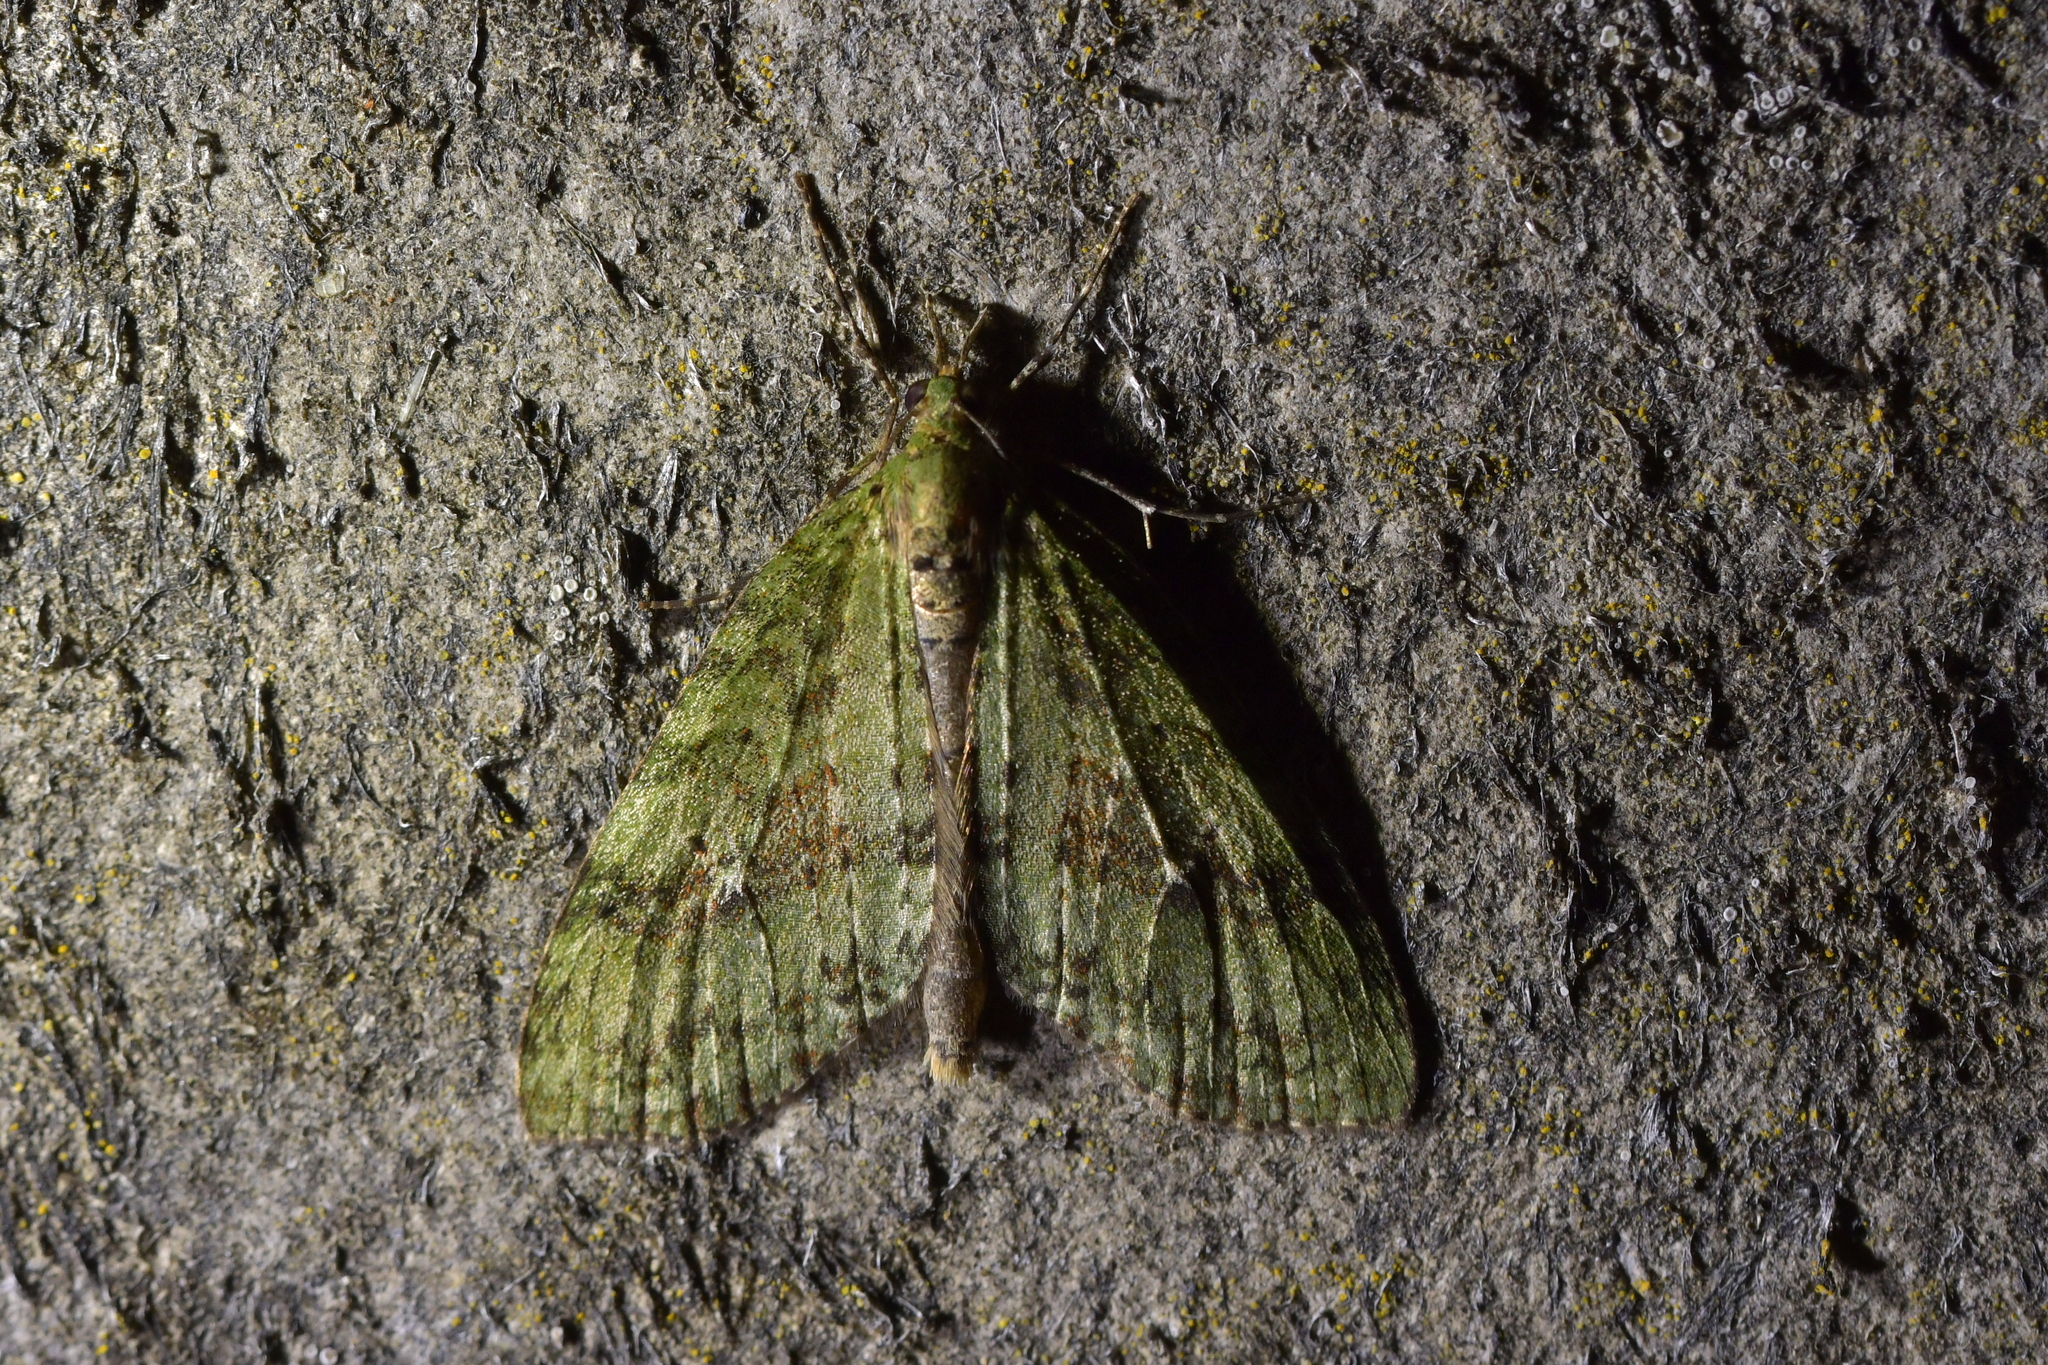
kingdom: Animalia
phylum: Arthropoda
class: Insecta
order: Lepidoptera
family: Geometridae
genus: Tatosoma
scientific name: Tatosoma transitaria
